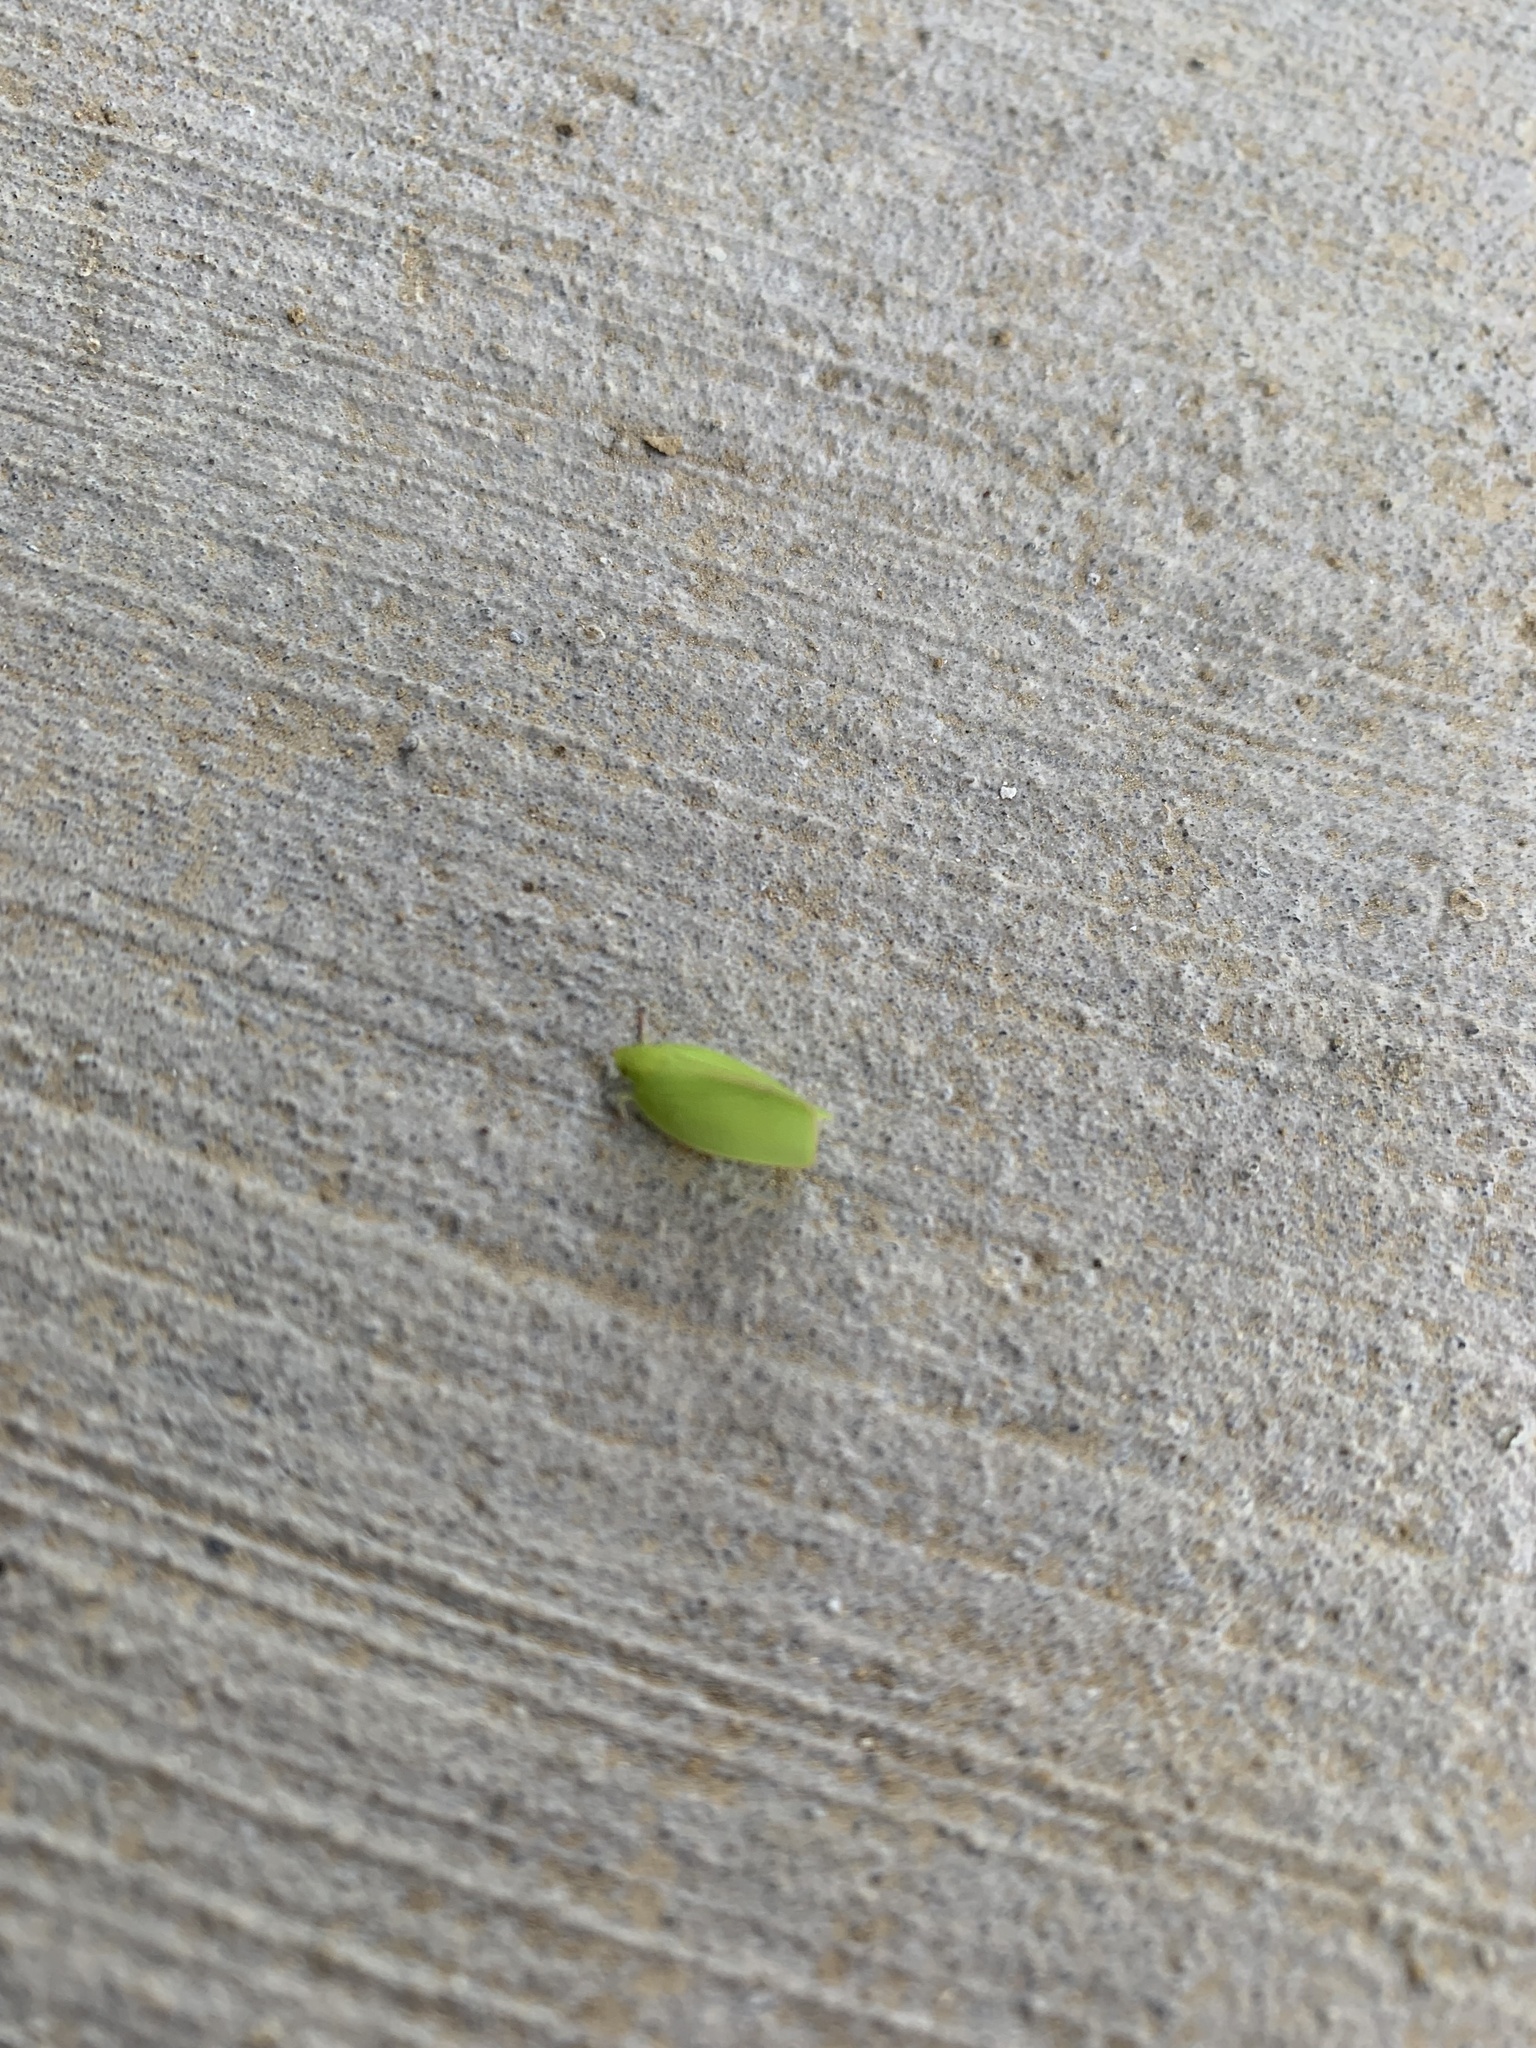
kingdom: Animalia
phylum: Arthropoda
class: Insecta
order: Hemiptera
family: Flatidae
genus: Siphanta
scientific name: Siphanta acuta
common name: Torpedo bug
